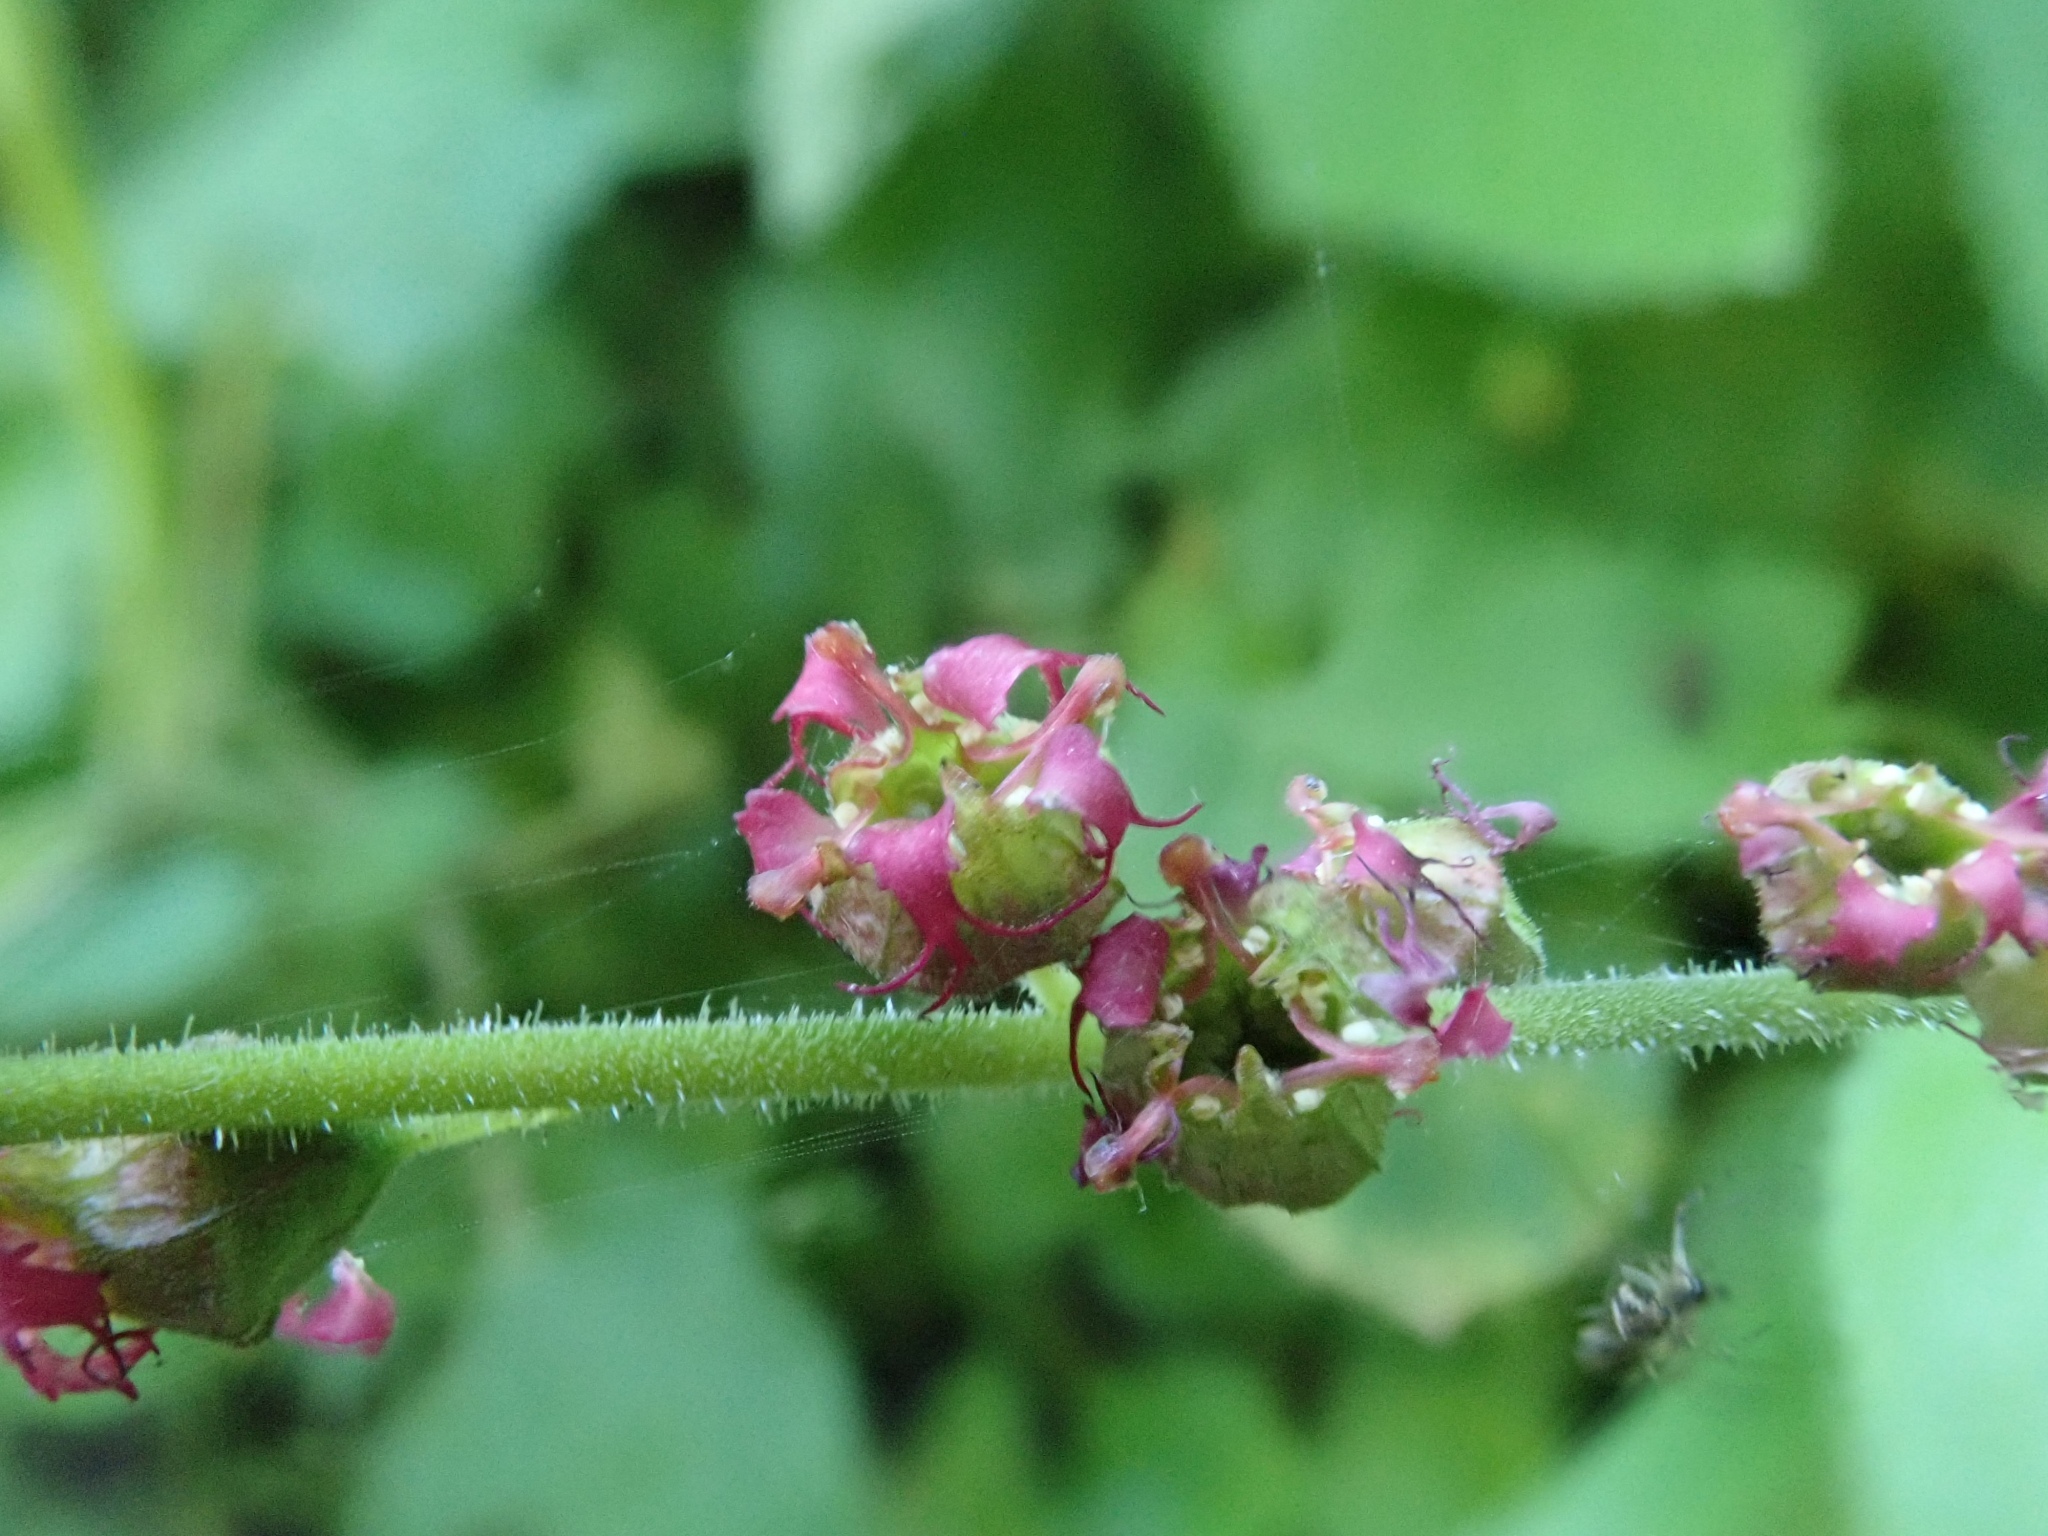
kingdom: Plantae
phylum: Tracheophyta
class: Magnoliopsida
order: Saxifragales
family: Saxifragaceae
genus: Tellima
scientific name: Tellima grandiflora
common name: Fringecups
